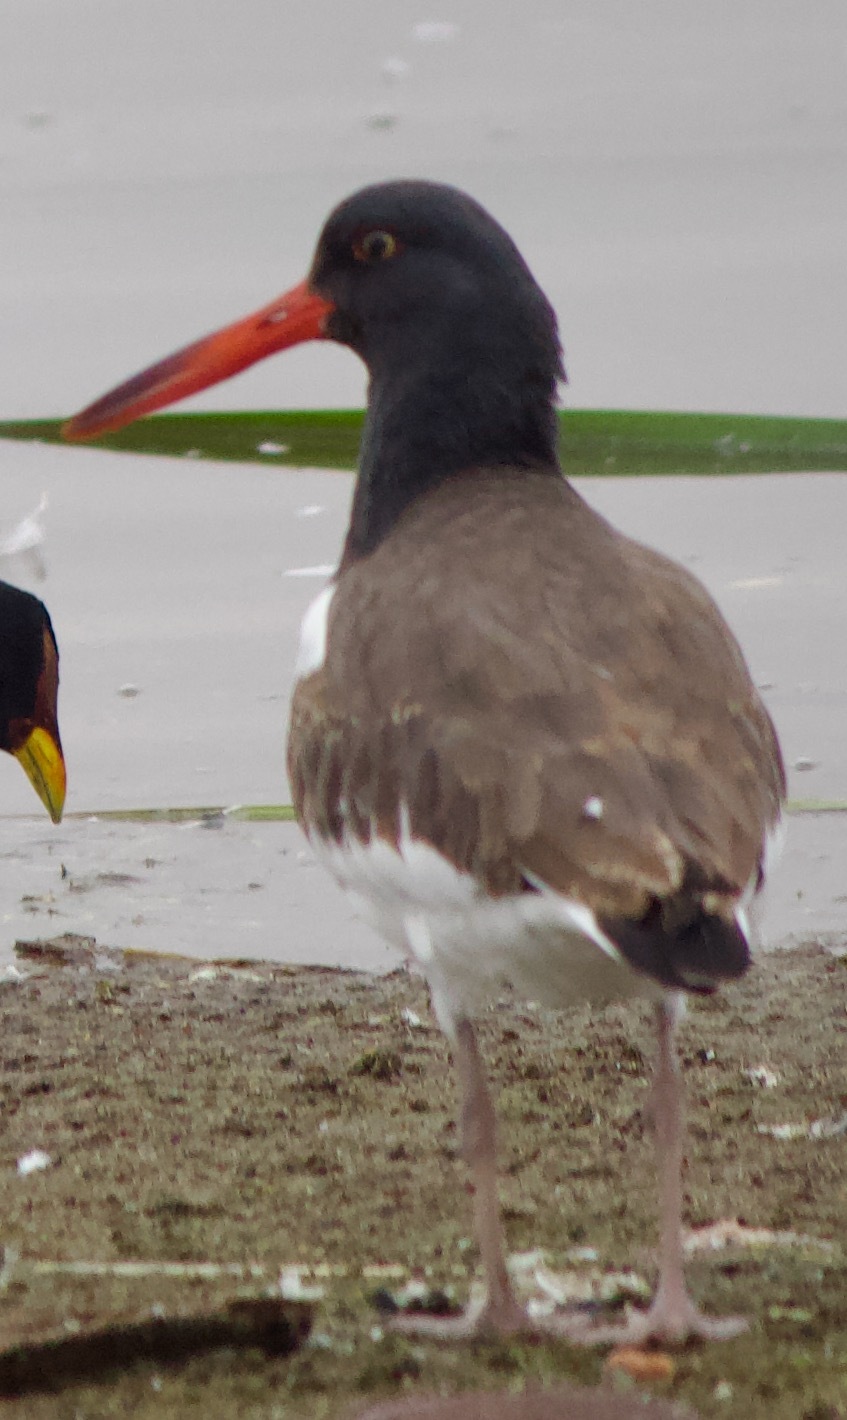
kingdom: Animalia
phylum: Chordata
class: Aves
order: Charadriiformes
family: Haematopodidae
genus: Haematopus
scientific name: Haematopus palliatus
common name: American oystercatcher
